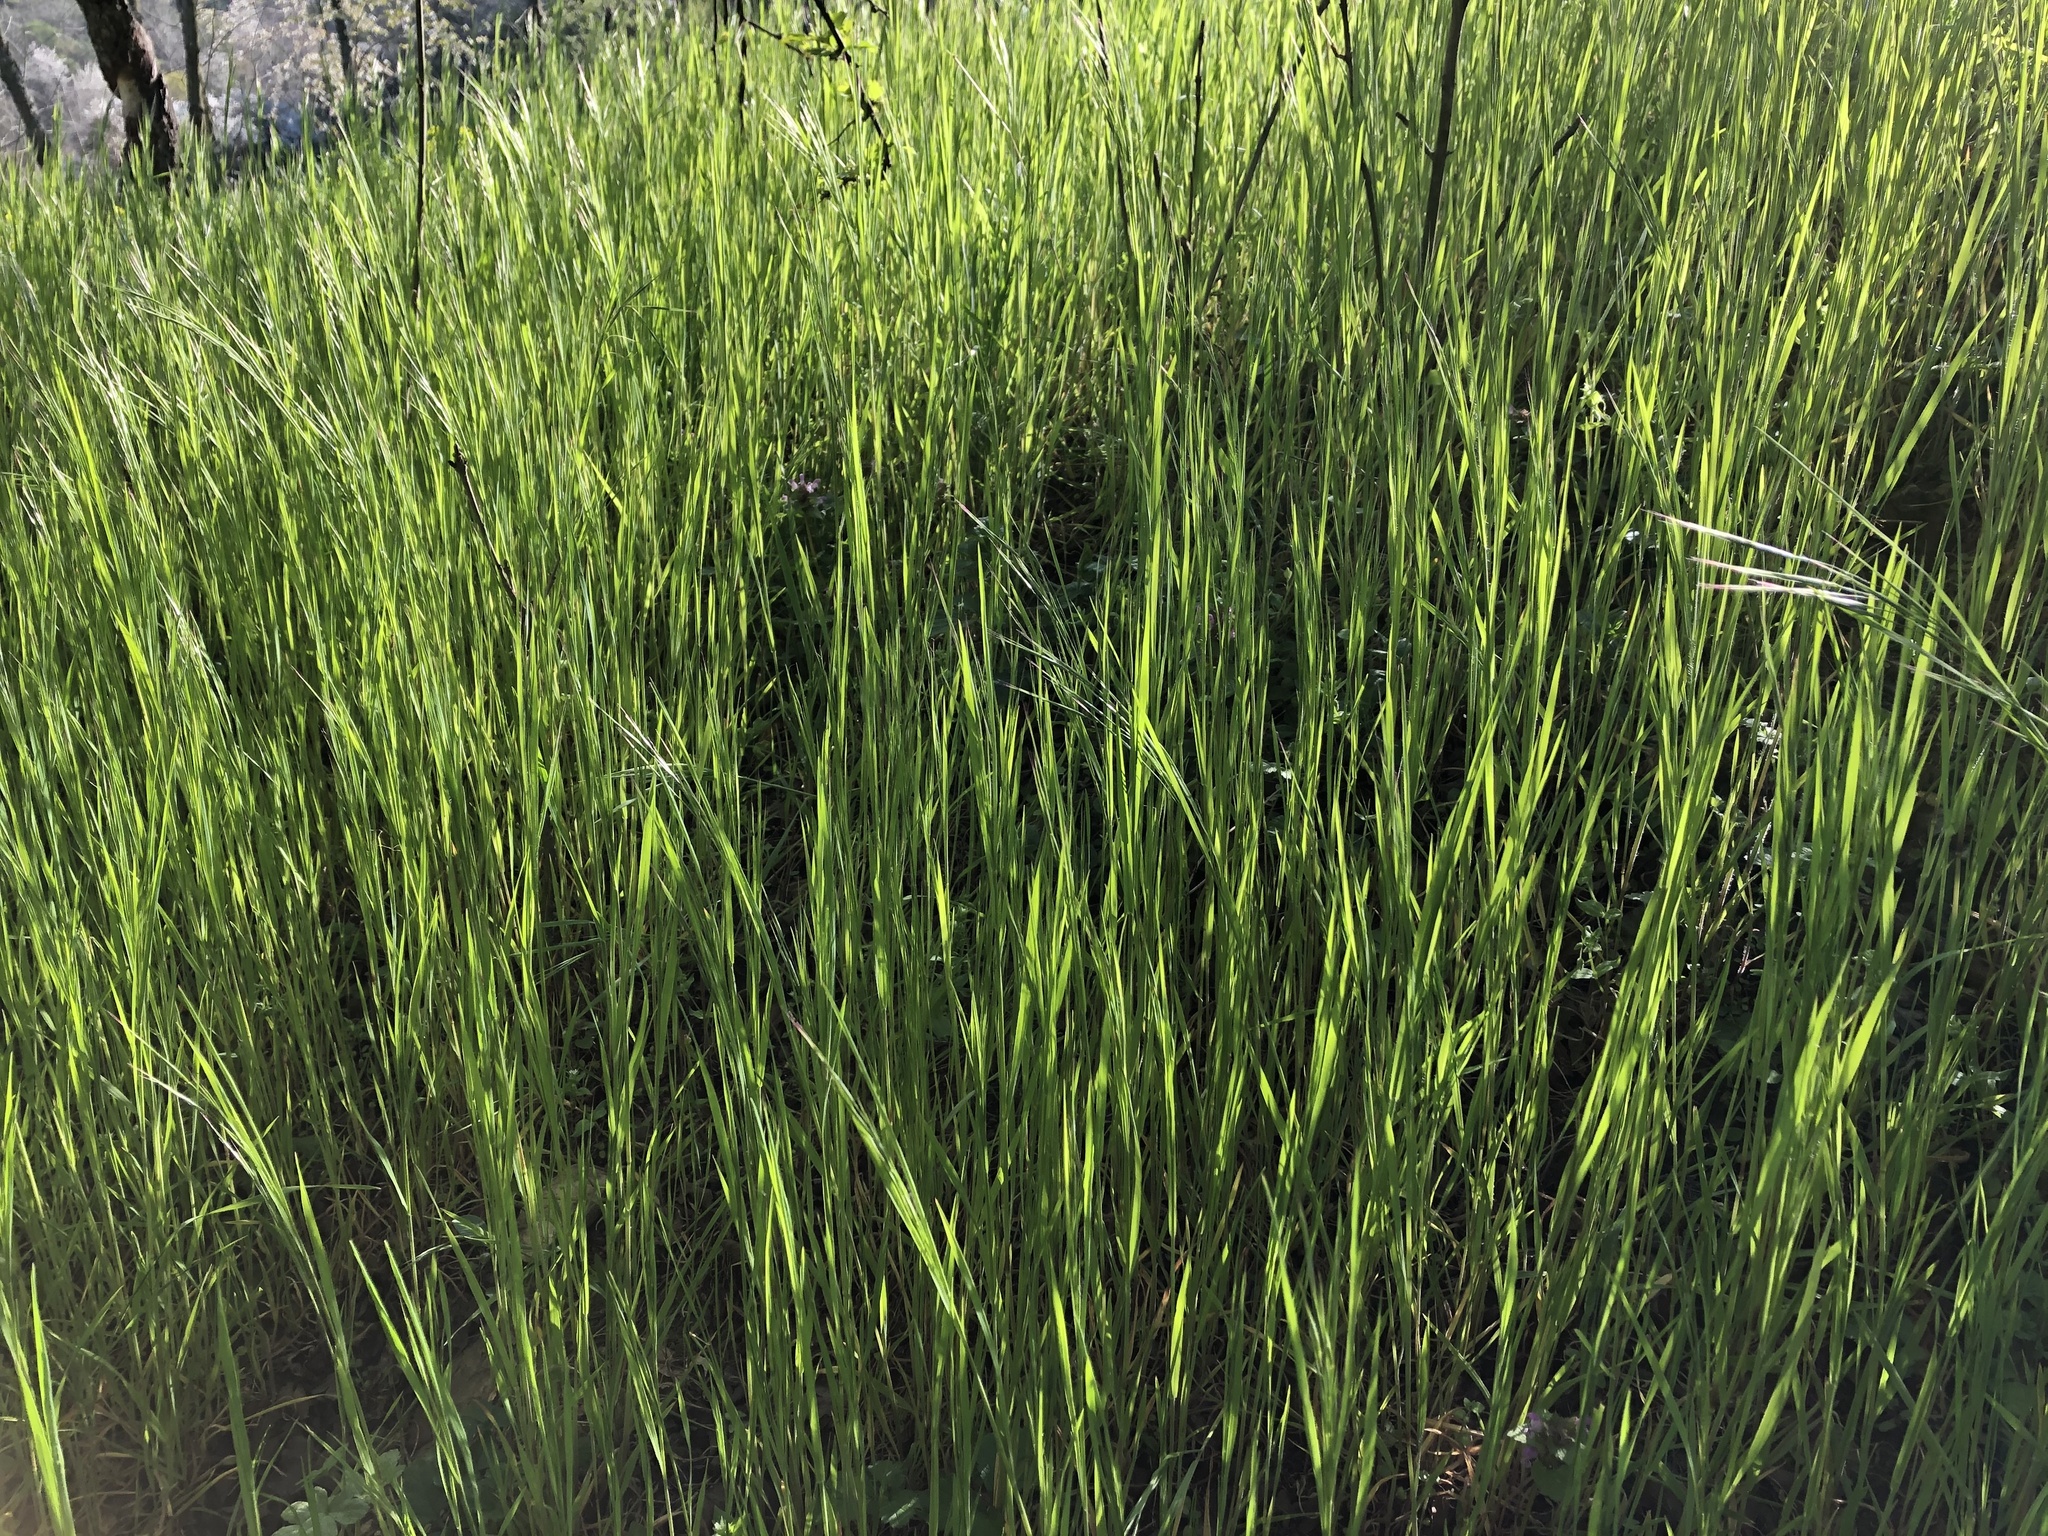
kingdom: Plantae
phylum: Tracheophyta
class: Liliopsida
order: Poales
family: Poaceae
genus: Bromus
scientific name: Bromus sterilis
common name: Poverty brome
